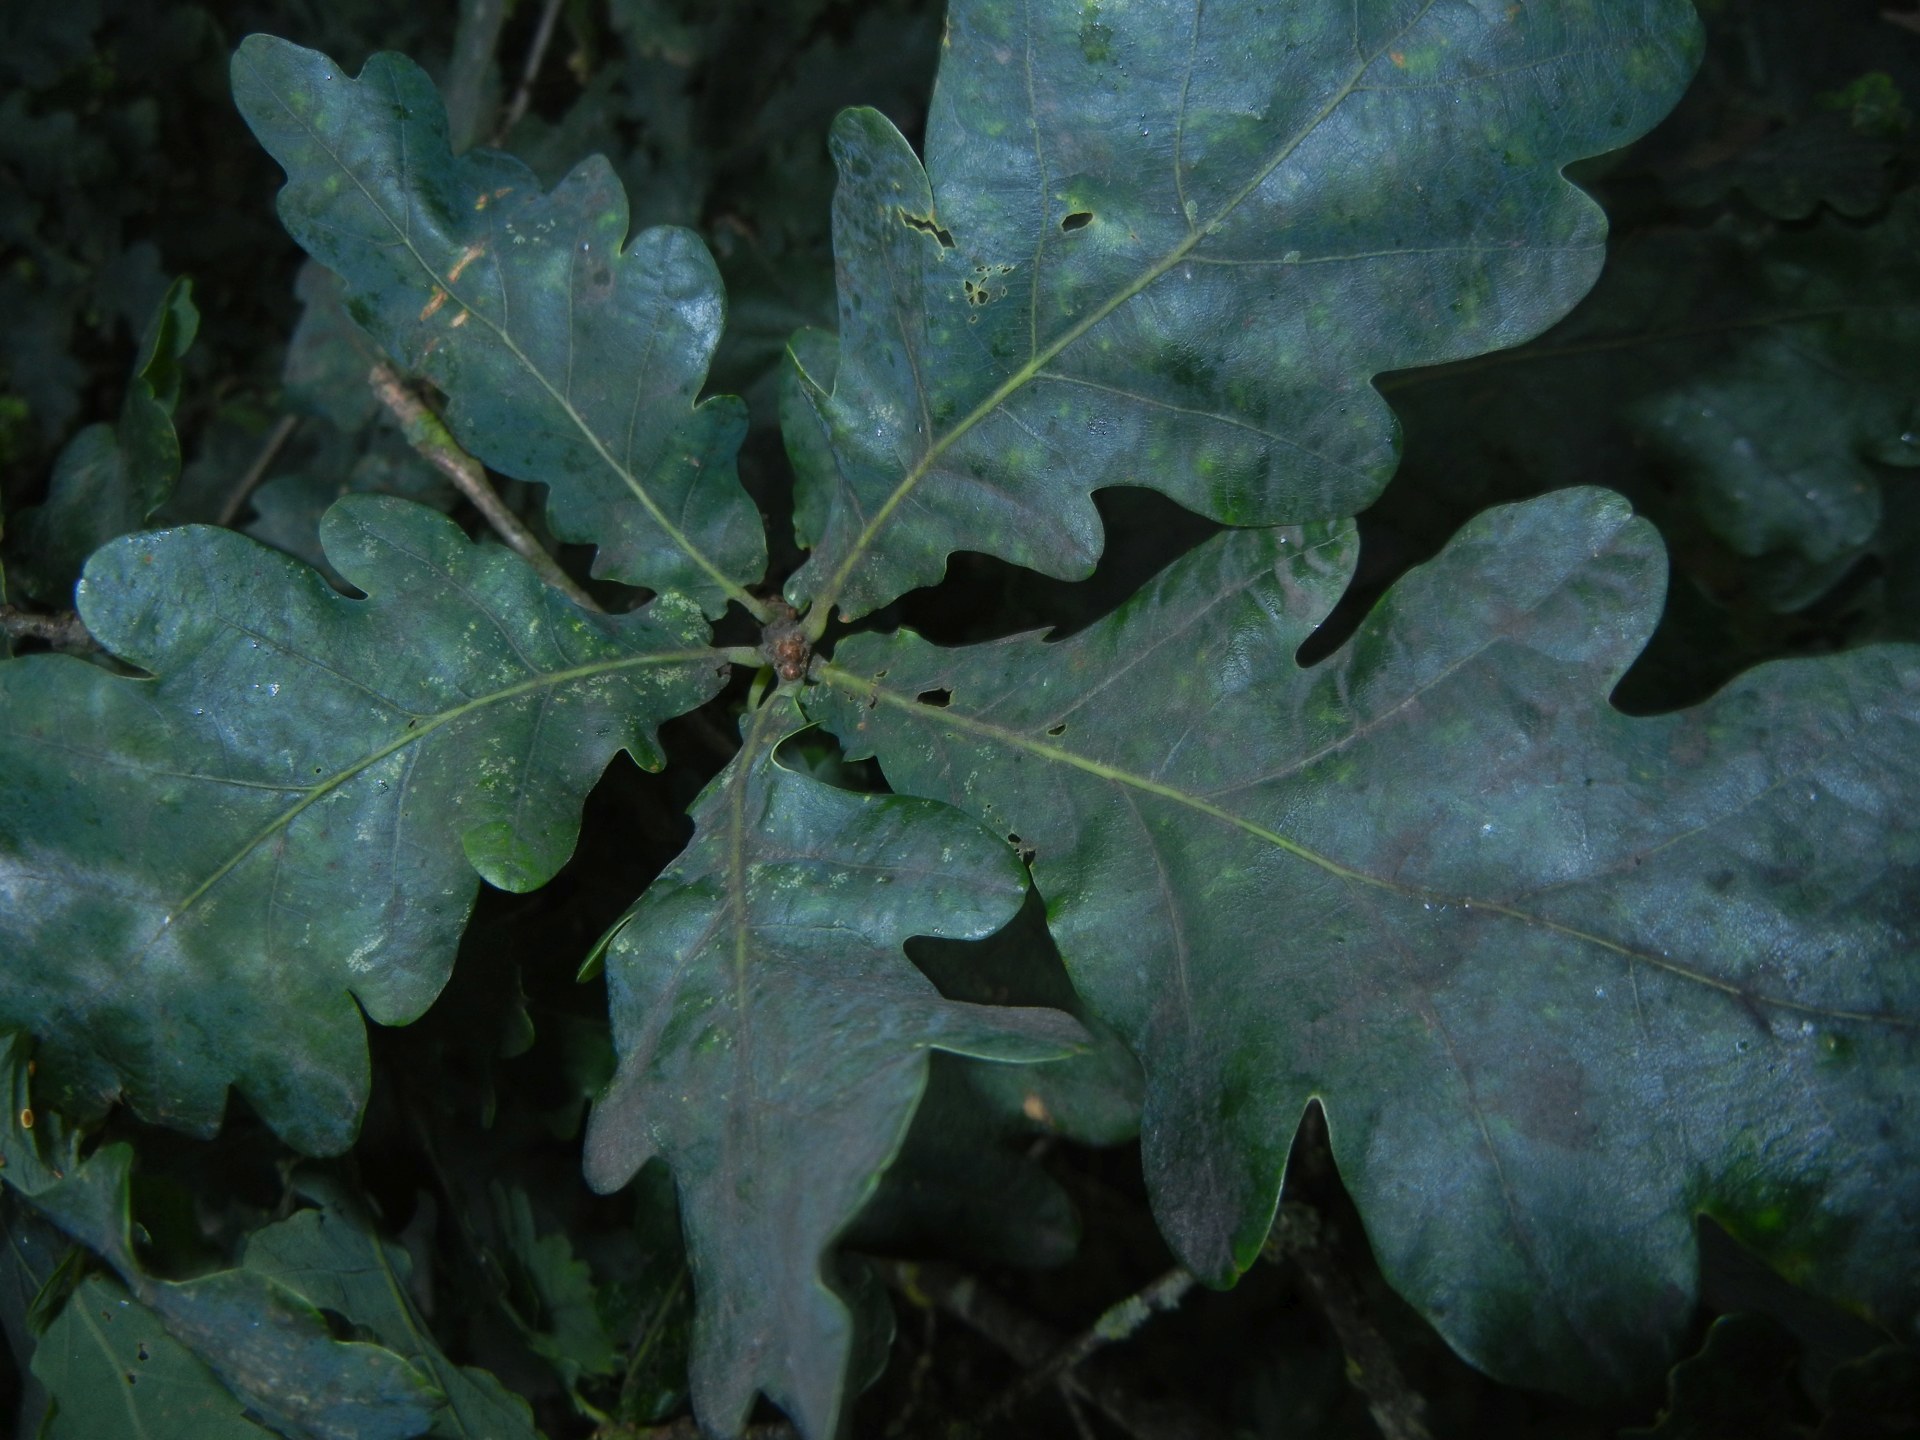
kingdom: Plantae
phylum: Tracheophyta
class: Magnoliopsida
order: Fagales
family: Fagaceae
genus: Quercus
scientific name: Quercus robur
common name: Pedunculate oak
